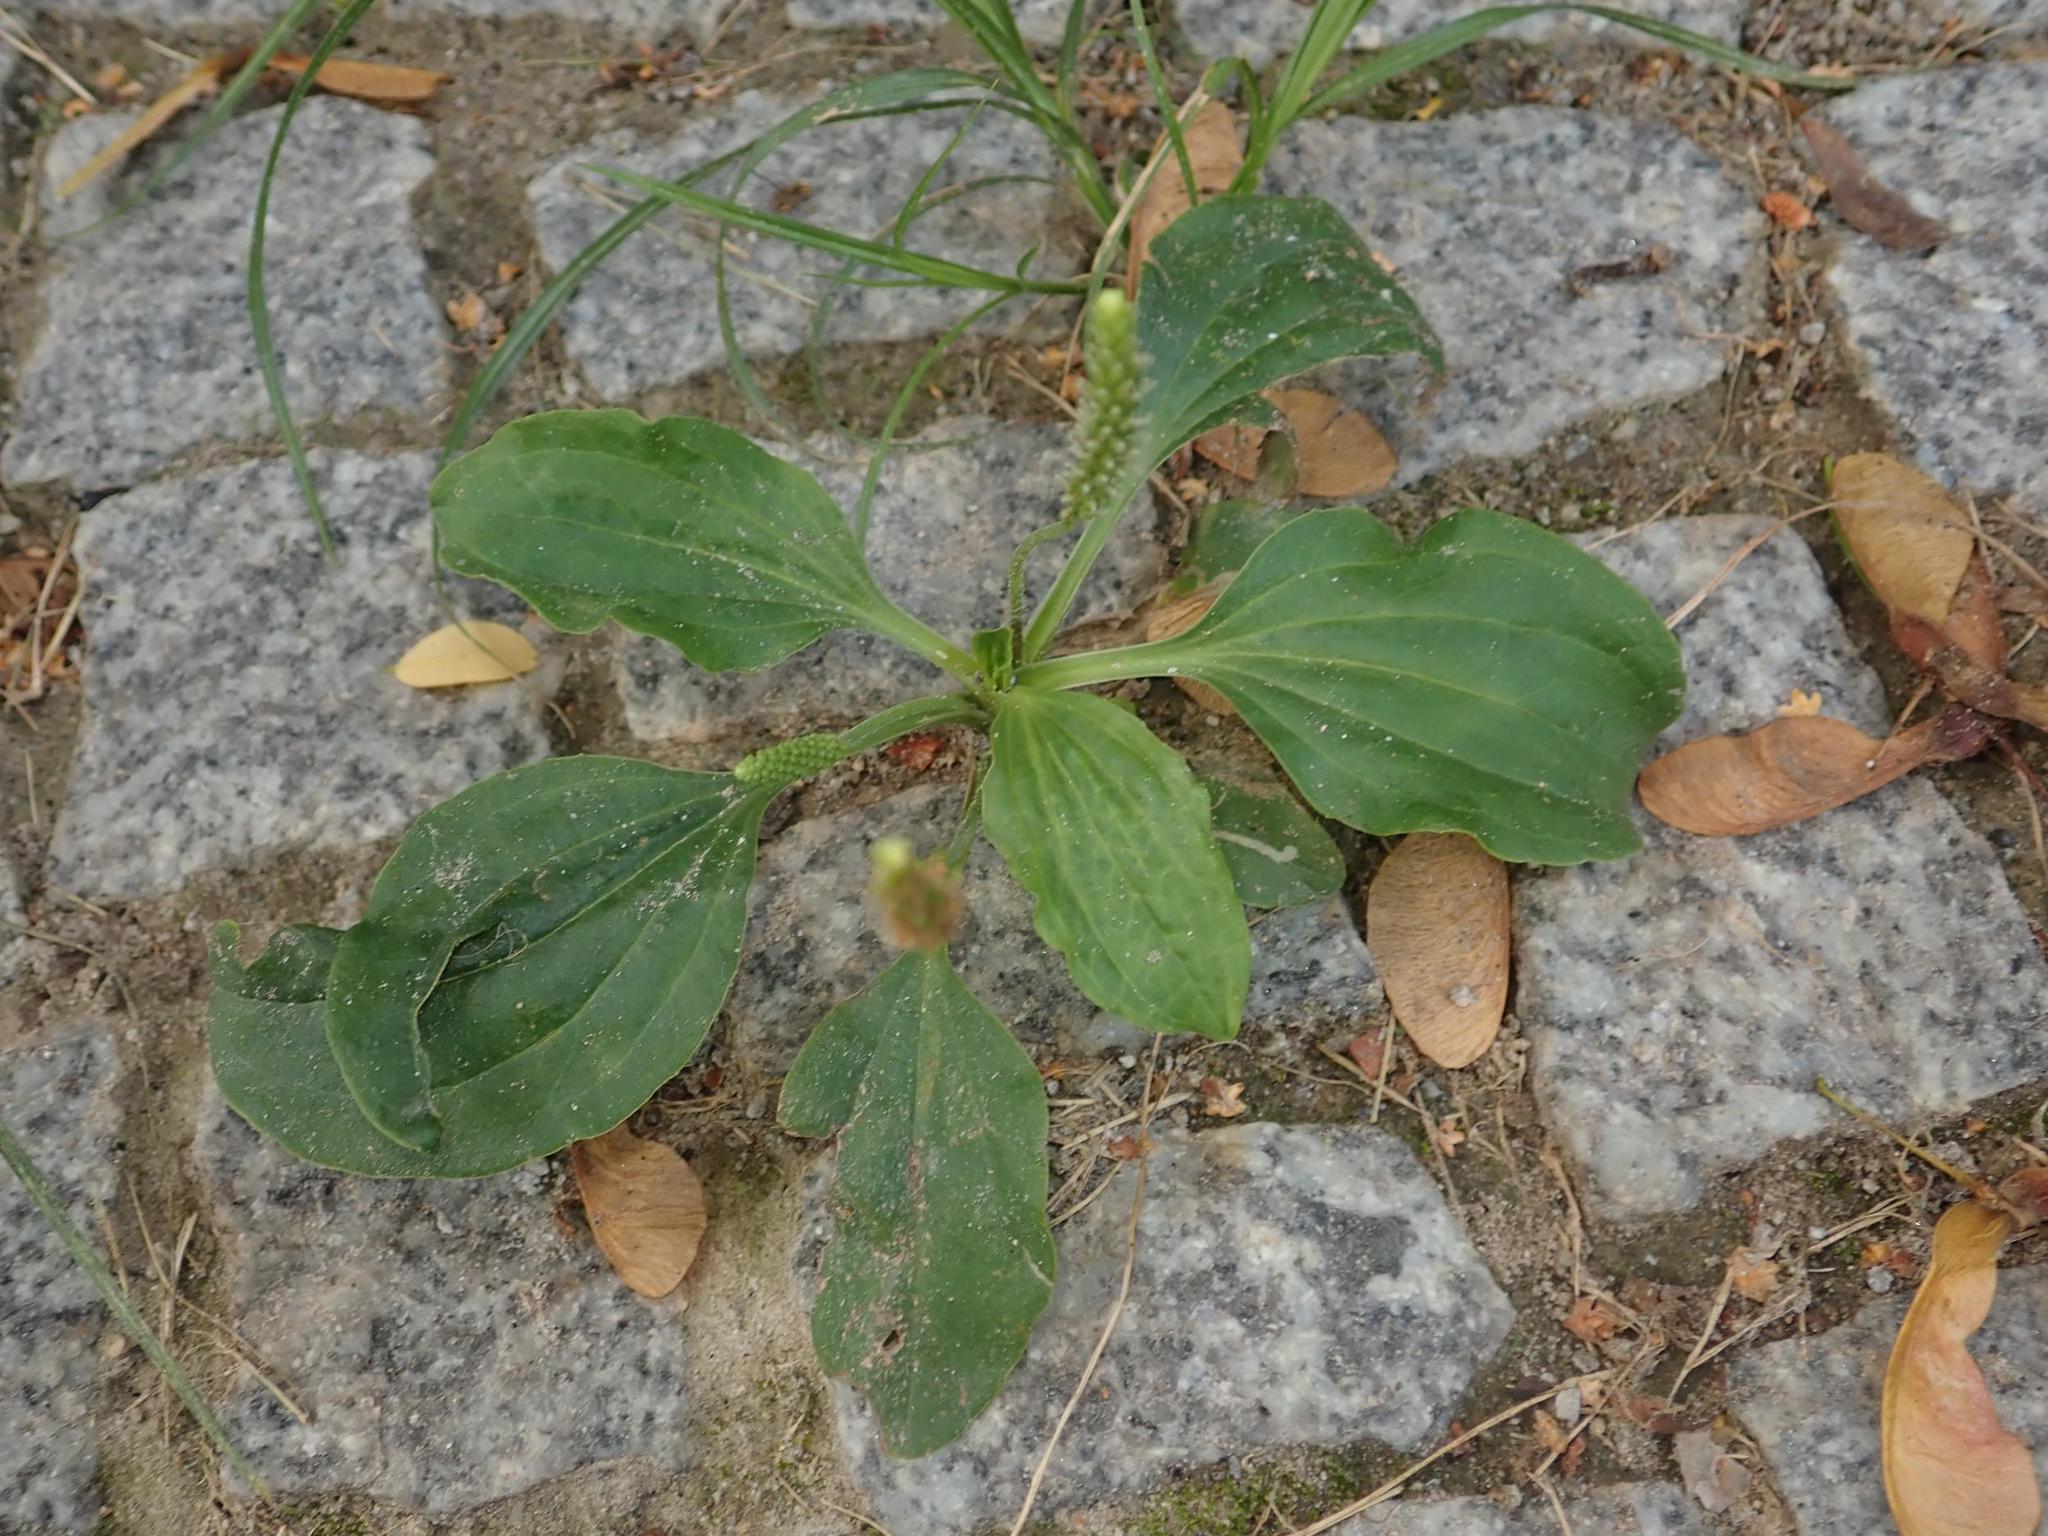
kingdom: Plantae
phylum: Tracheophyta
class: Magnoliopsida
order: Lamiales
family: Plantaginaceae
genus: Plantago
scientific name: Plantago major
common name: Common plantain
